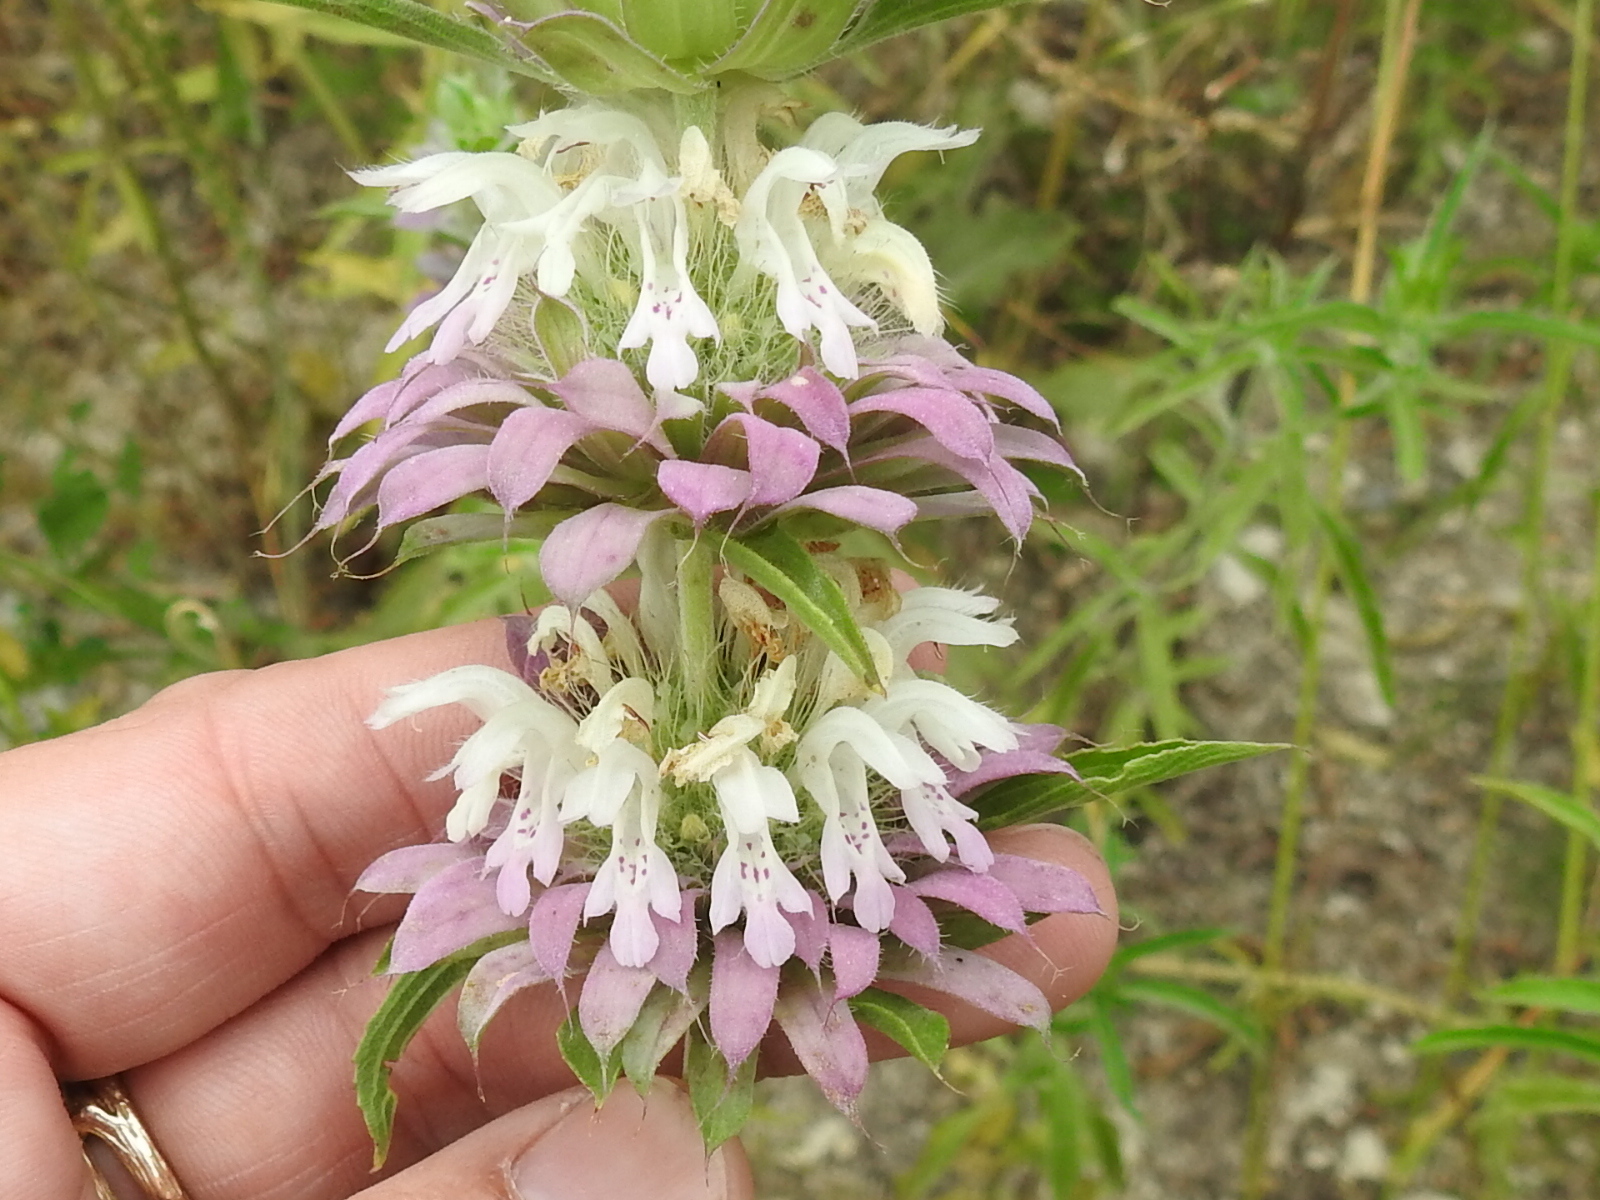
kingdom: Plantae
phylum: Tracheophyta
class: Magnoliopsida
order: Lamiales
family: Lamiaceae
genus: Monarda
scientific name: Monarda citriodora
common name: Lemon beebalm
